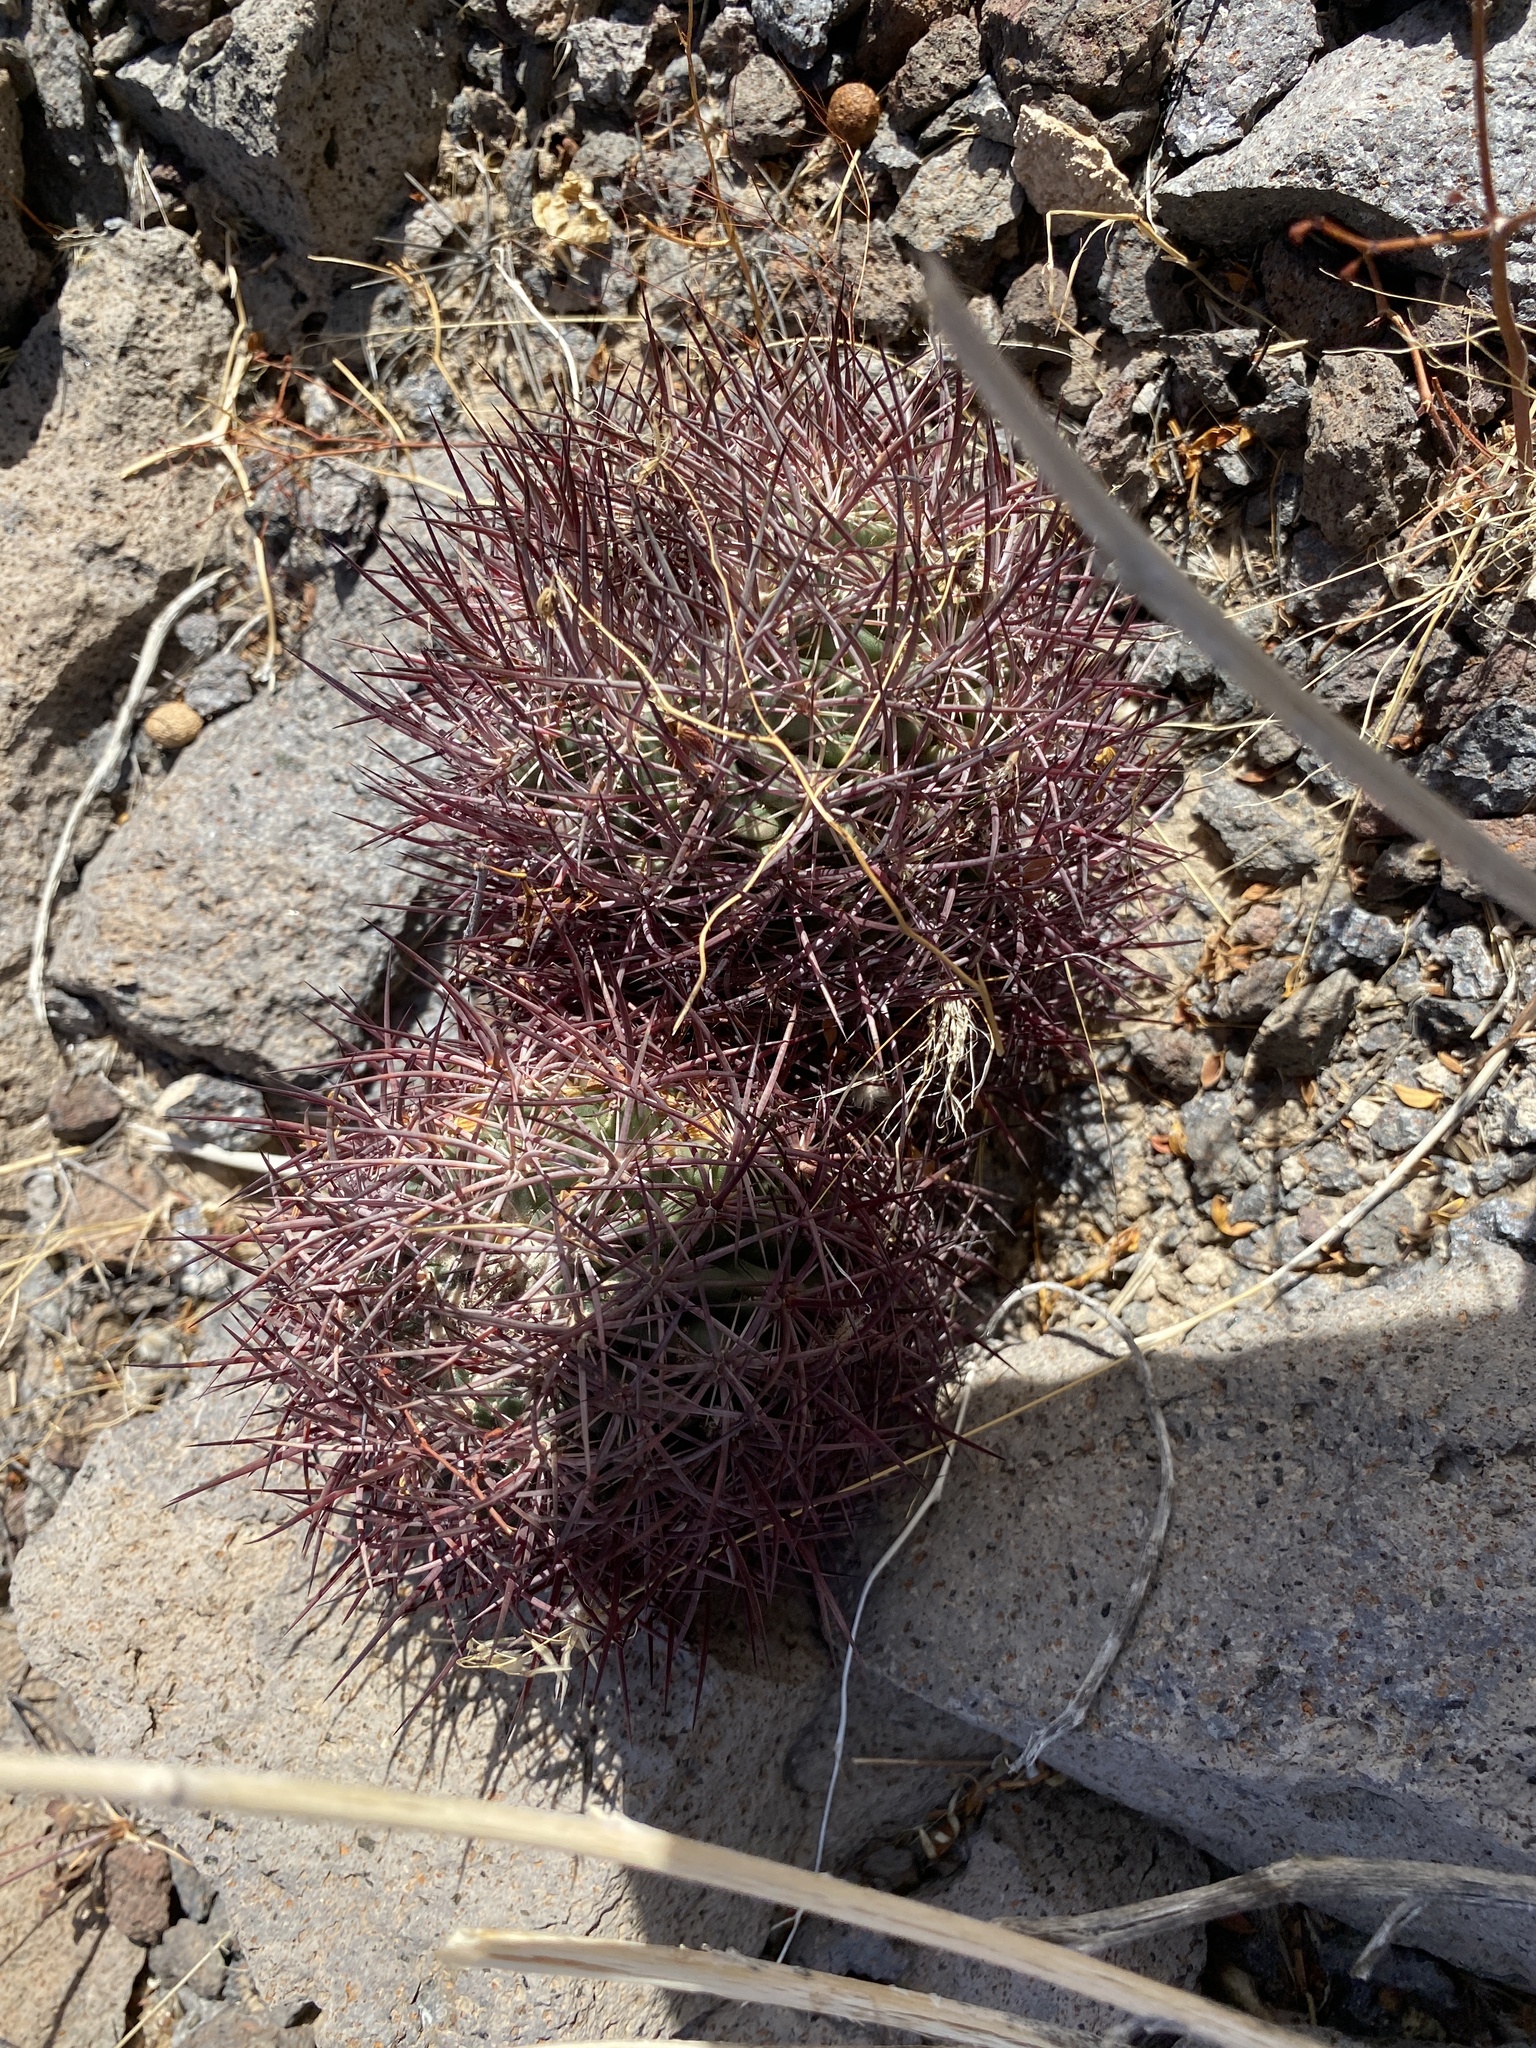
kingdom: Plantae
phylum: Tracheophyta
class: Magnoliopsida
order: Caryophyllales
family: Cactaceae
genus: Sclerocactus
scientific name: Sclerocactus johnsonii
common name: Eight-spine fishhook cactus
